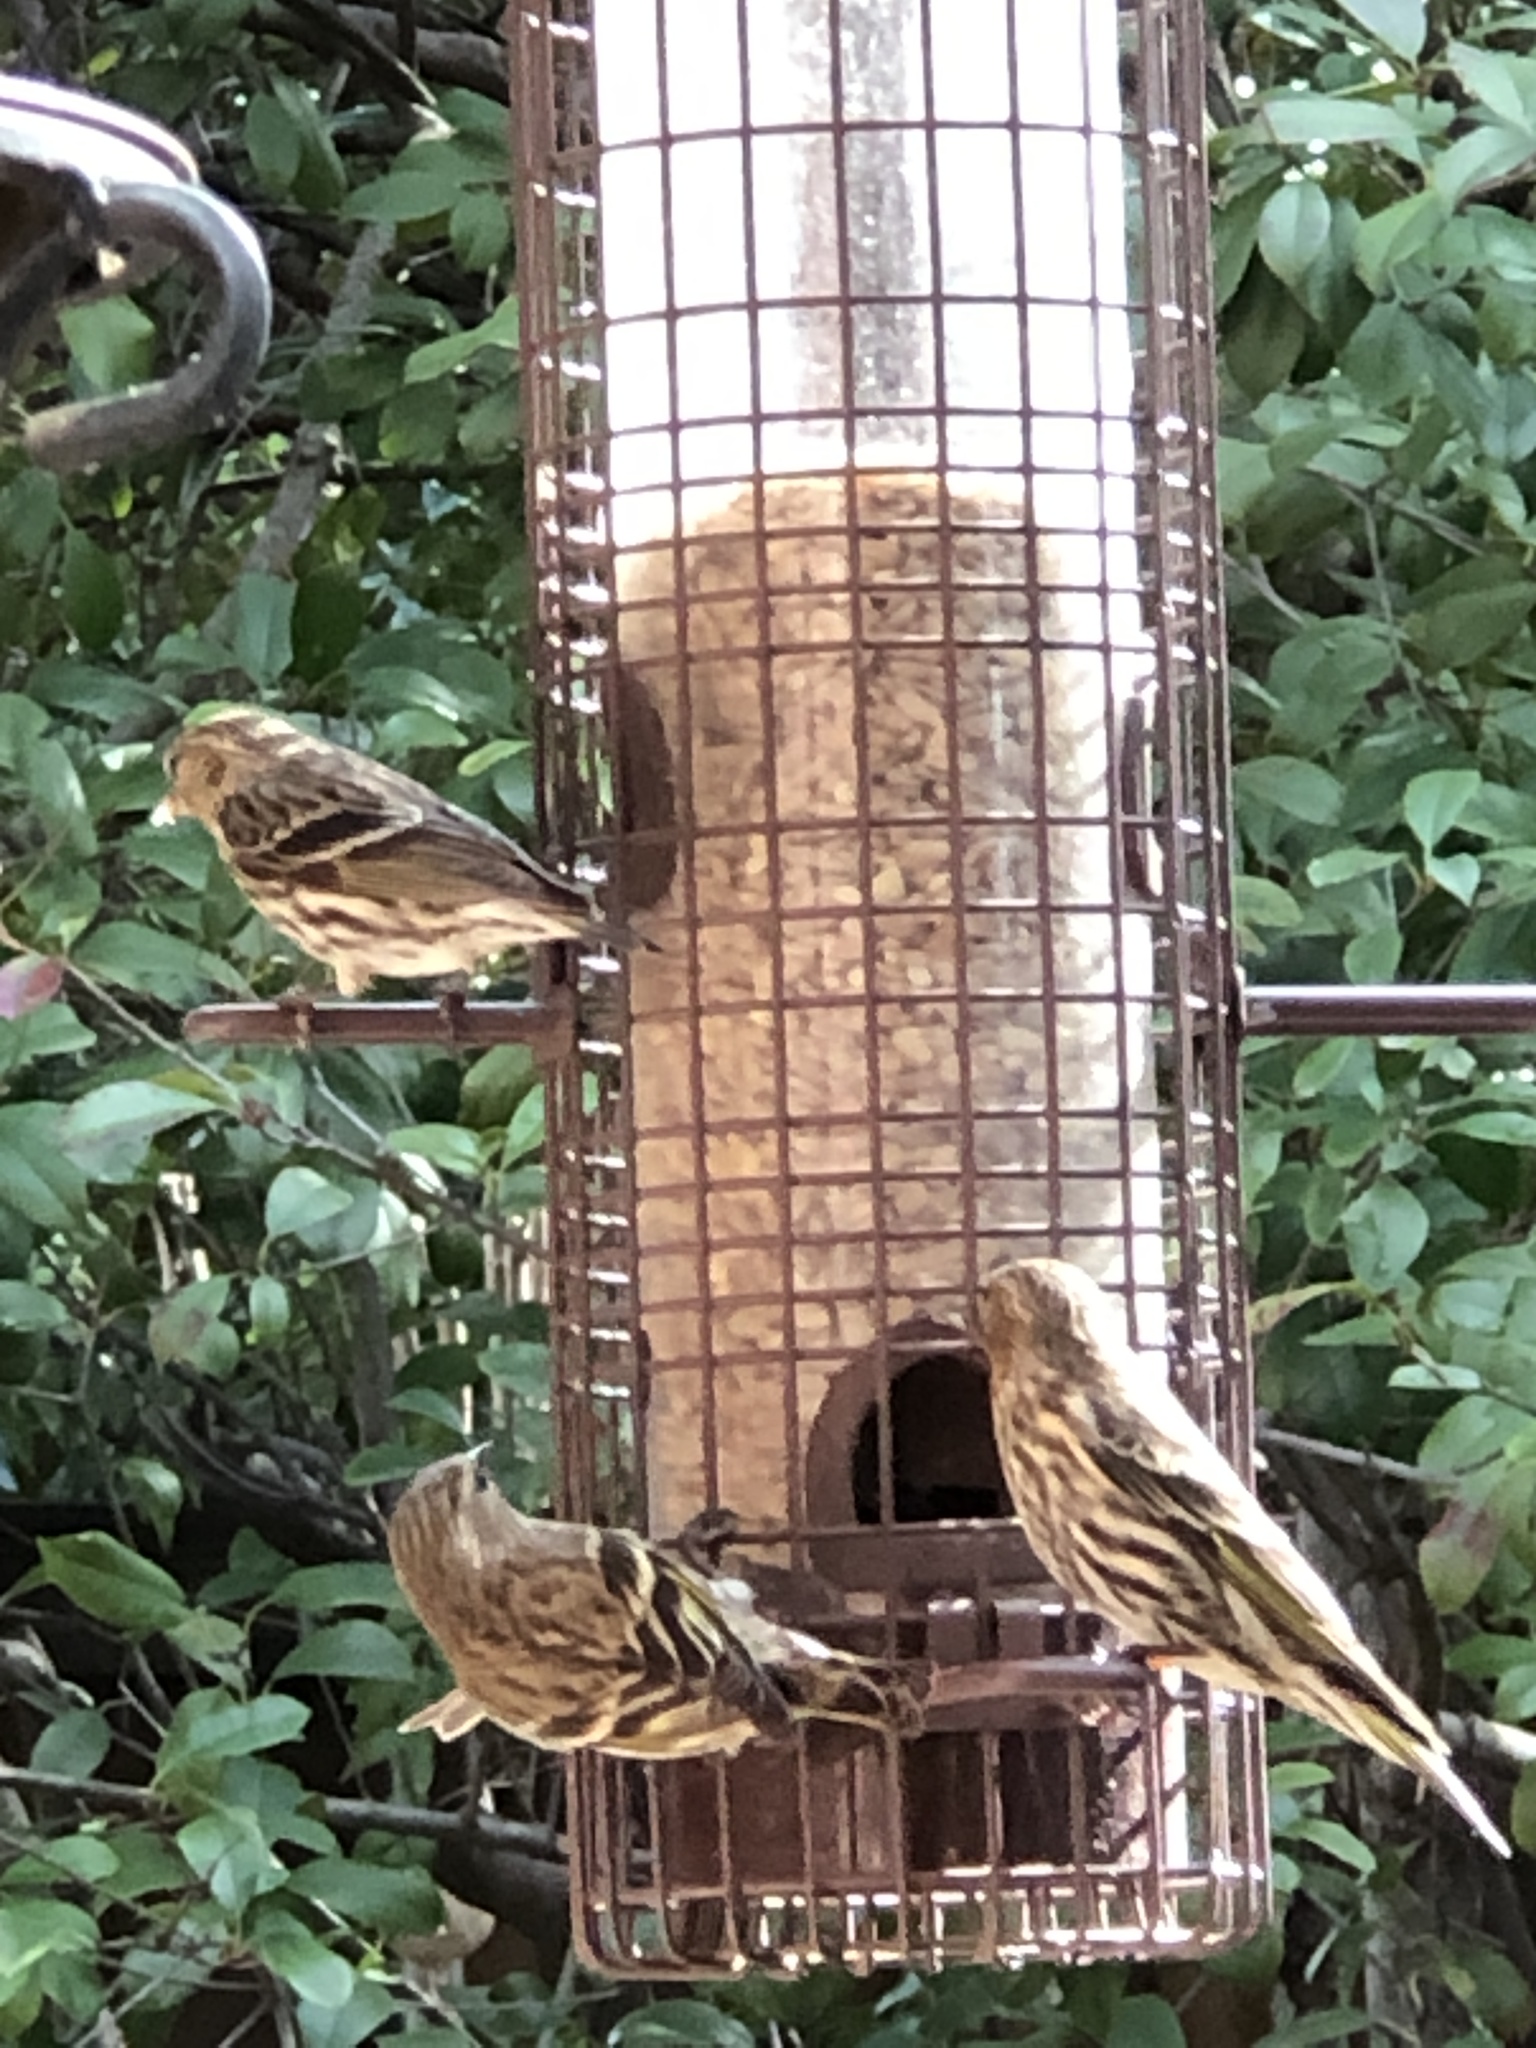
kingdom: Animalia
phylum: Chordata
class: Aves
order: Passeriformes
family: Fringillidae
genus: Spinus
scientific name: Spinus pinus
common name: Pine siskin
